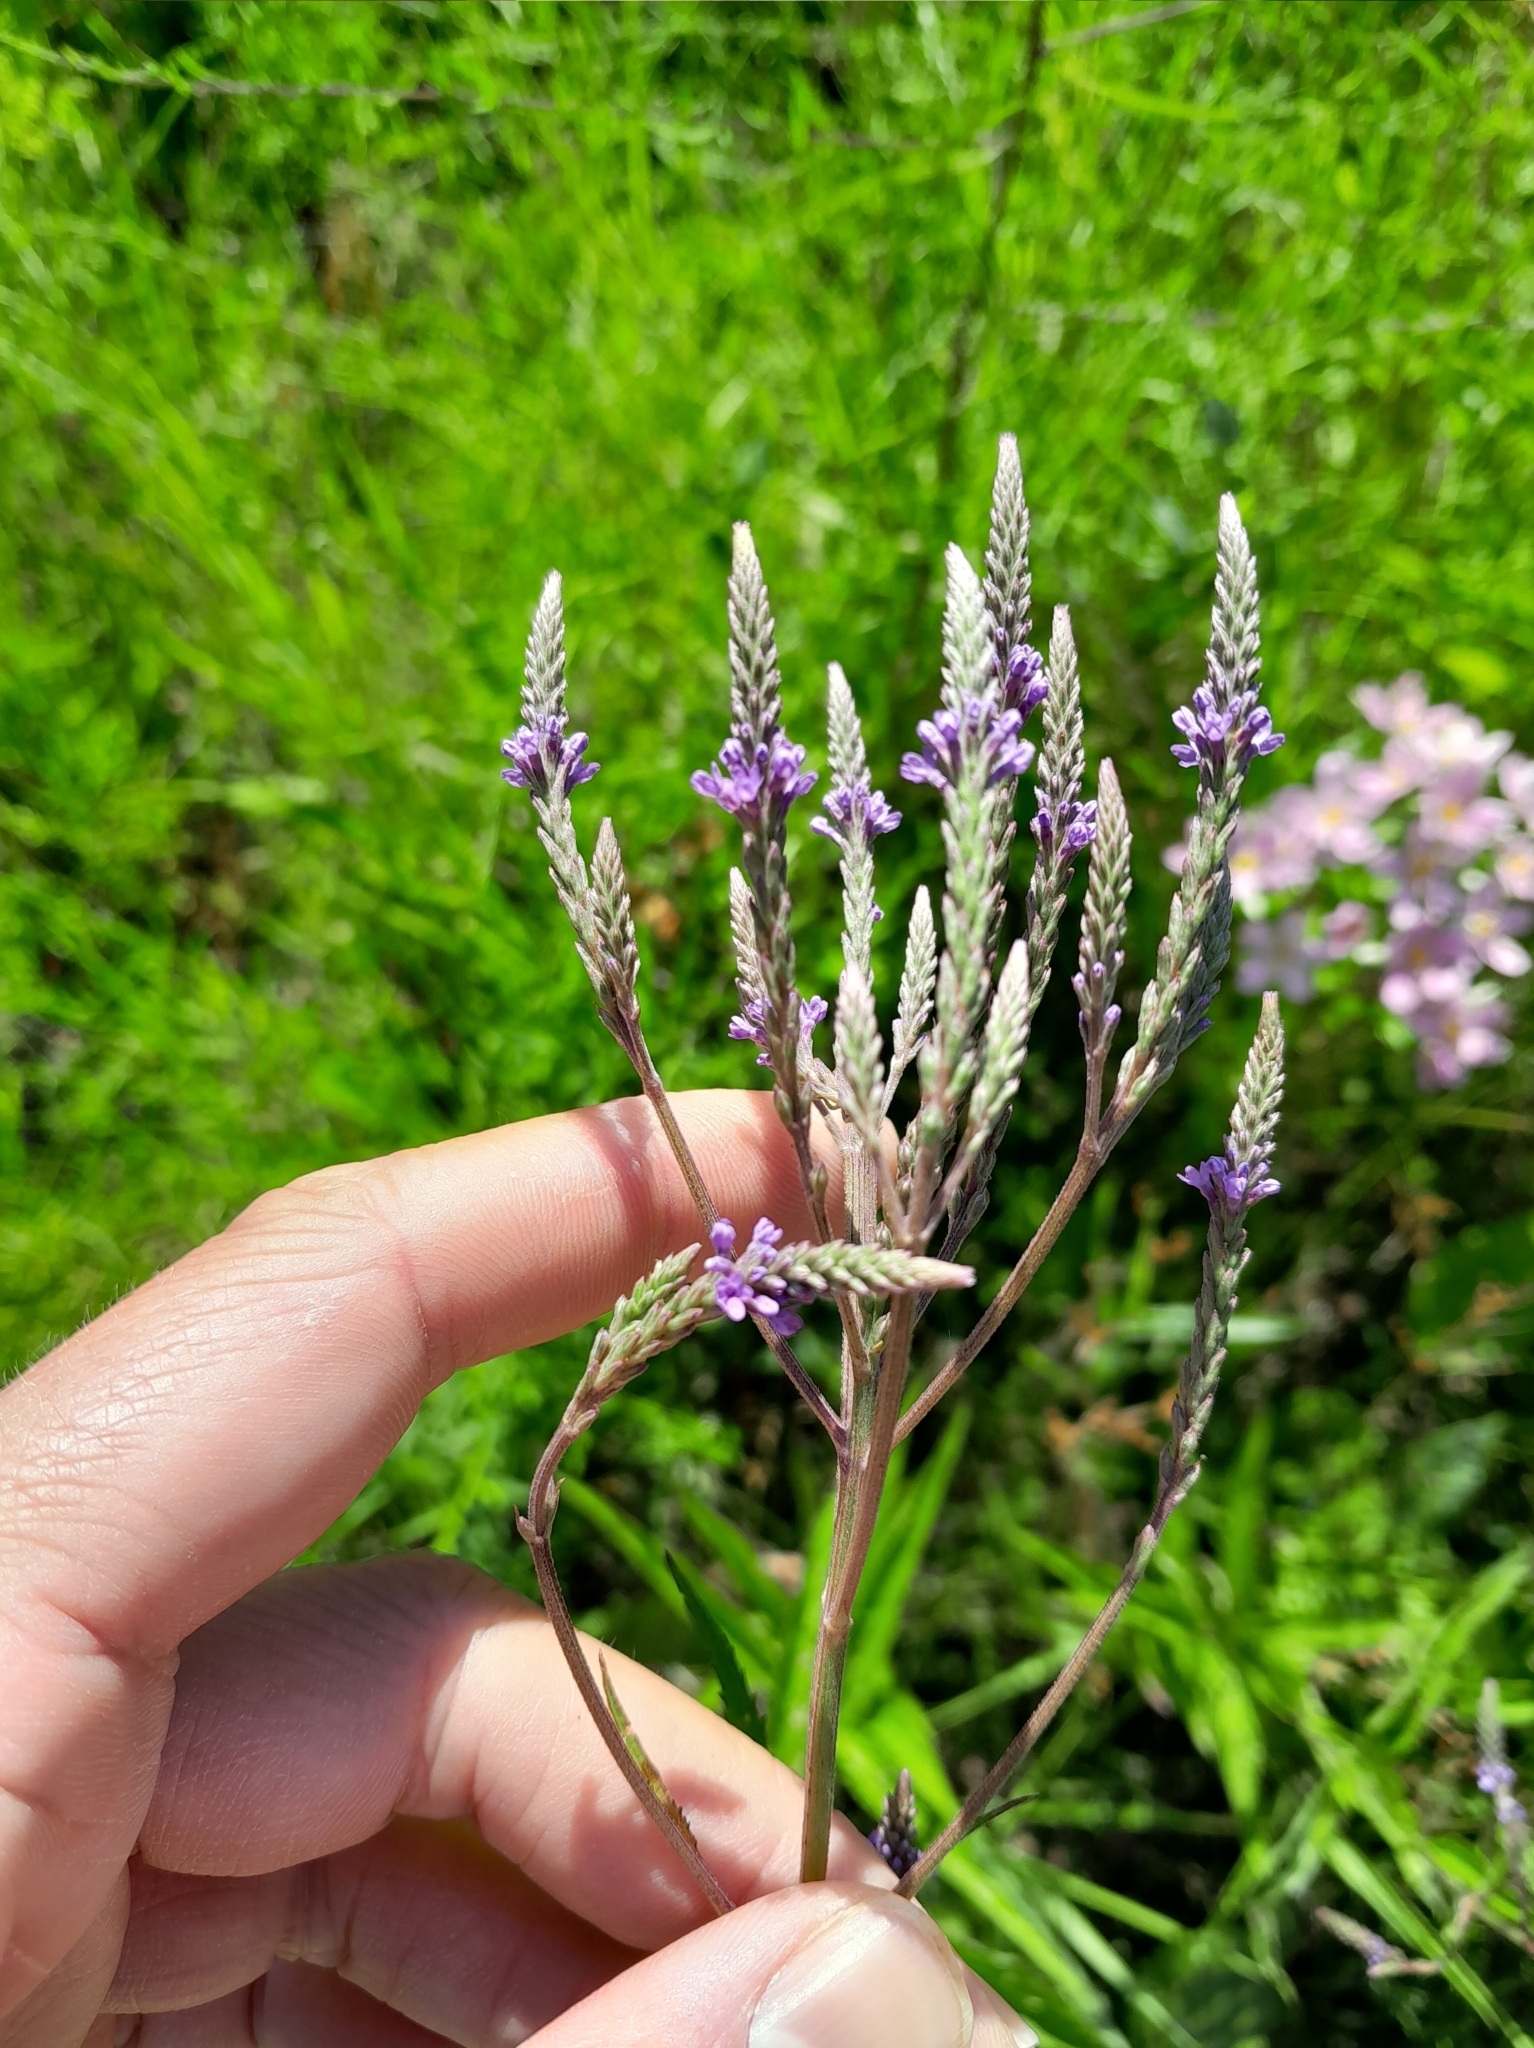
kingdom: Plantae
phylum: Tracheophyta
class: Magnoliopsida
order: Lamiales
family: Verbenaceae
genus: Verbena
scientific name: Verbena hastata
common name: American blue vervain
